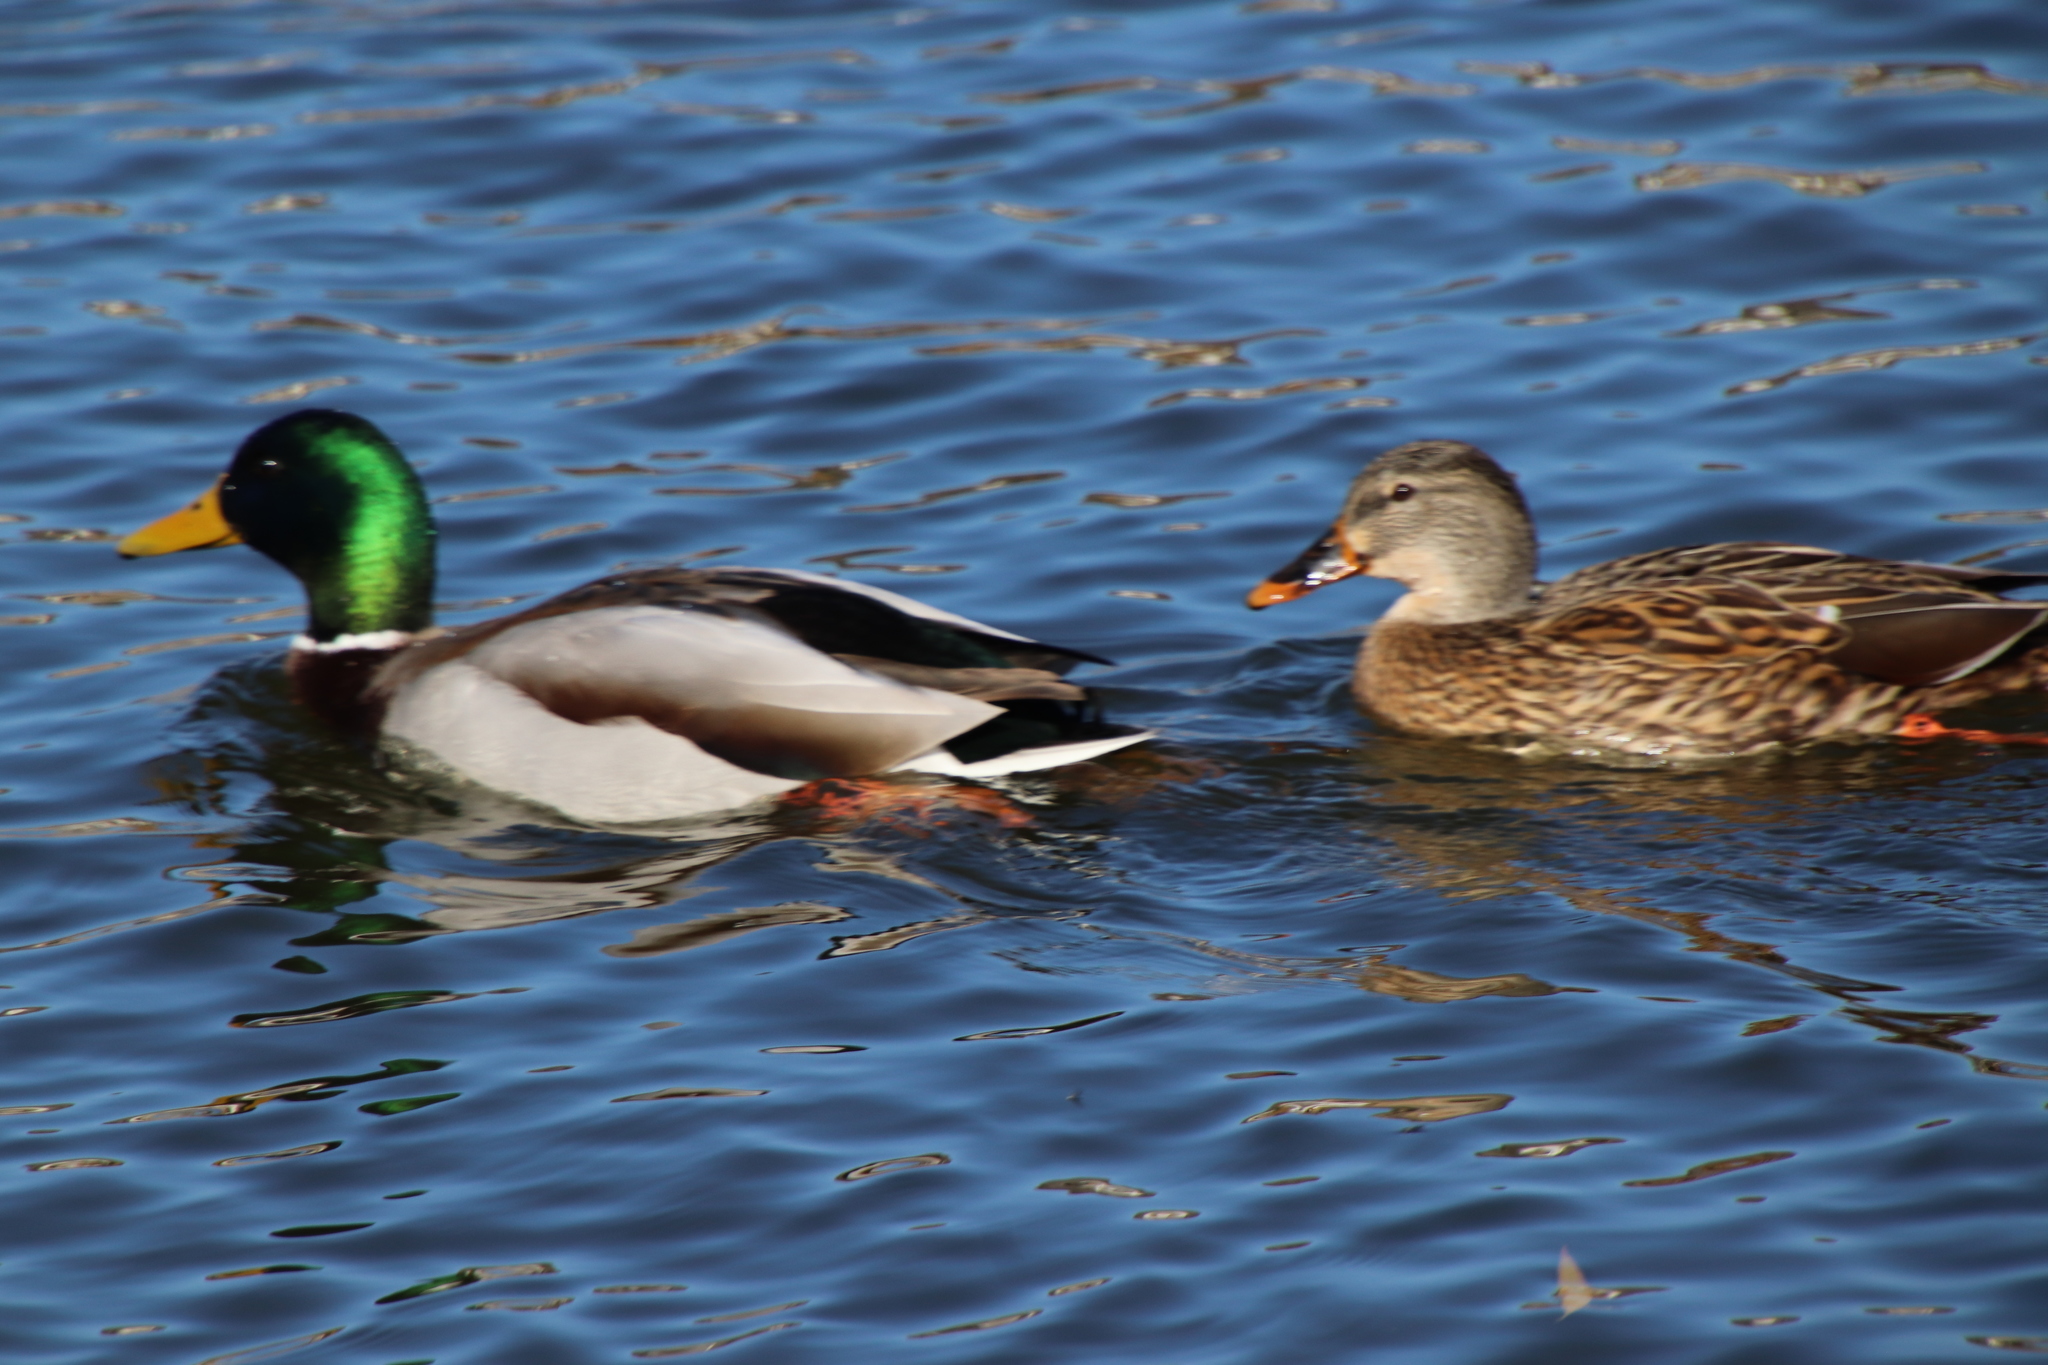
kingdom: Animalia
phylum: Chordata
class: Aves
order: Anseriformes
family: Anatidae
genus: Anas
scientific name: Anas platyrhynchos
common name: Mallard
